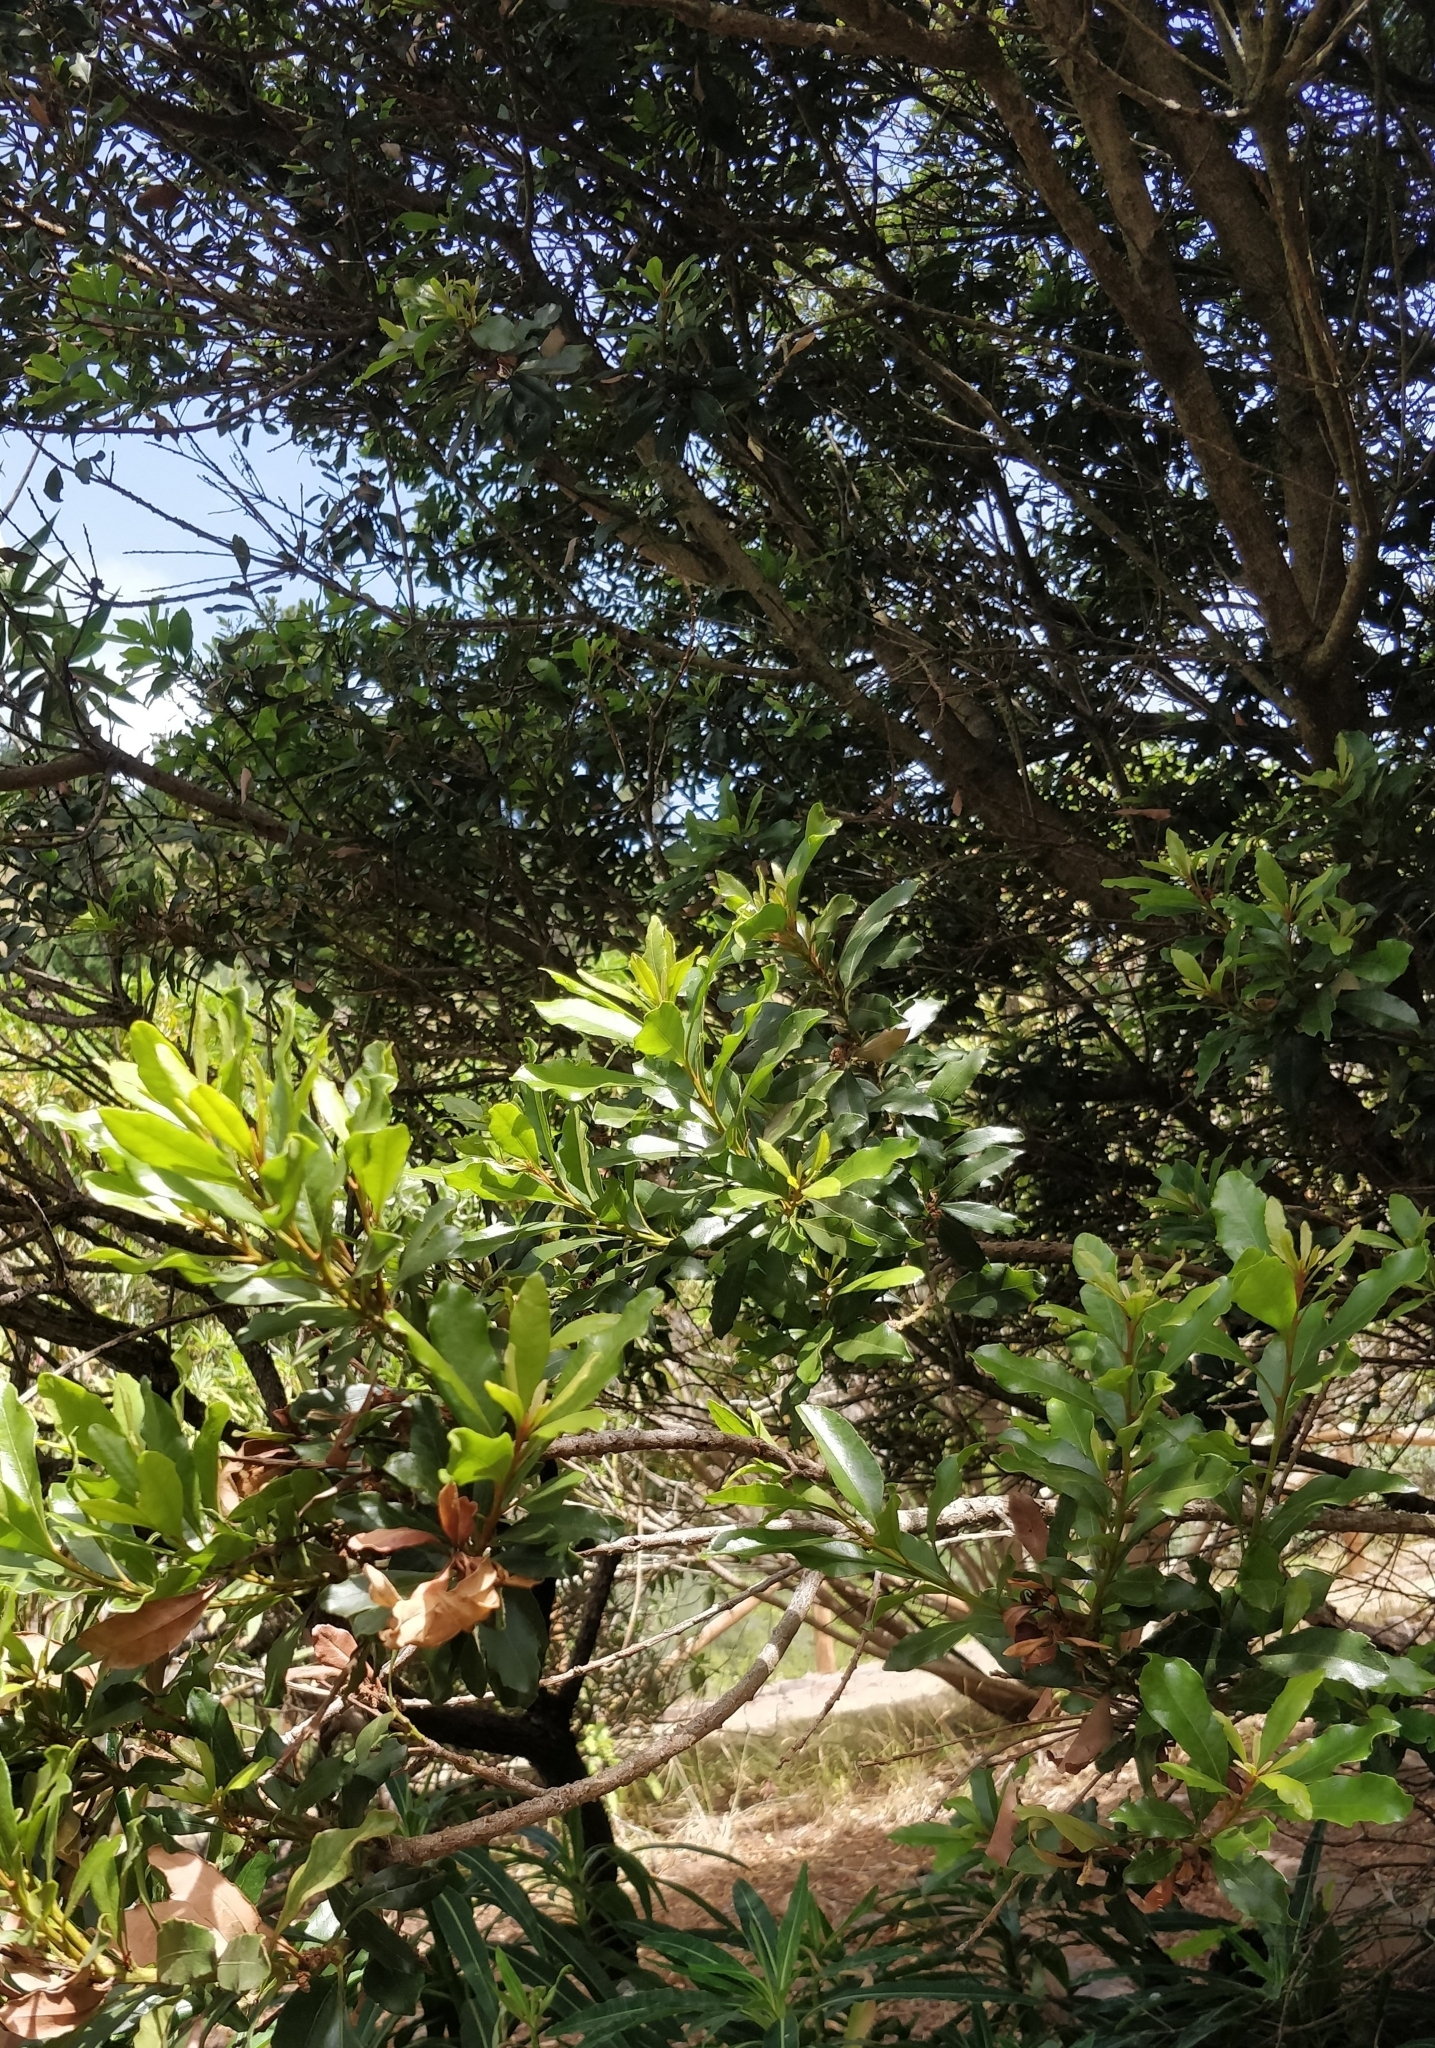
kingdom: Plantae
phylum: Tracheophyta
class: Magnoliopsida
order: Fagales
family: Myricaceae
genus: Morella
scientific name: Morella faya
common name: Firetree
